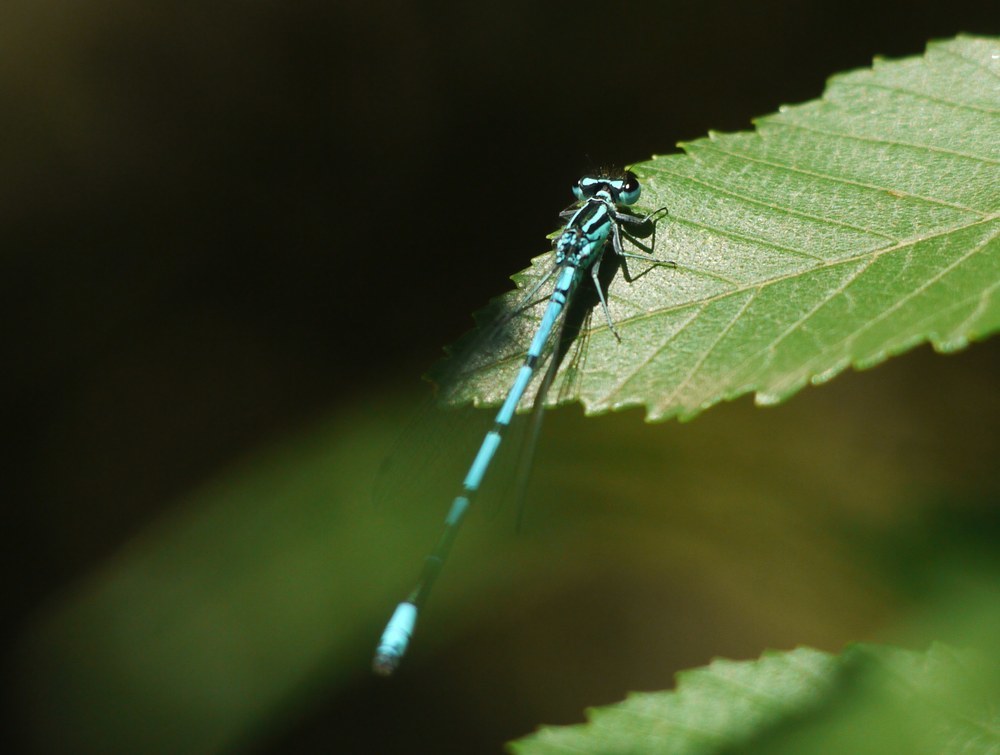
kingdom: Animalia
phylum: Arthropoda
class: Insecta
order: Odonata
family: Coenagrionidae
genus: Coenagrion
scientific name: Coenagrion puella
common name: Azure damselfly
